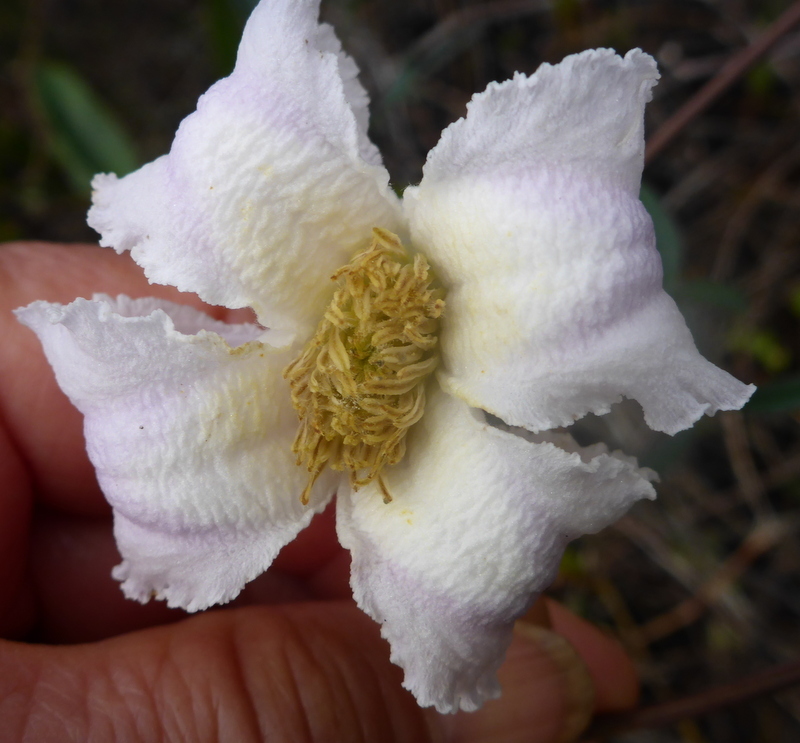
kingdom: Plantae
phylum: Tracheophyta
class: Magnoliopsida
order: Ranunculales
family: Ranunculaceae
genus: Clematis
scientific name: Clematis crispa
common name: Curly clematis
